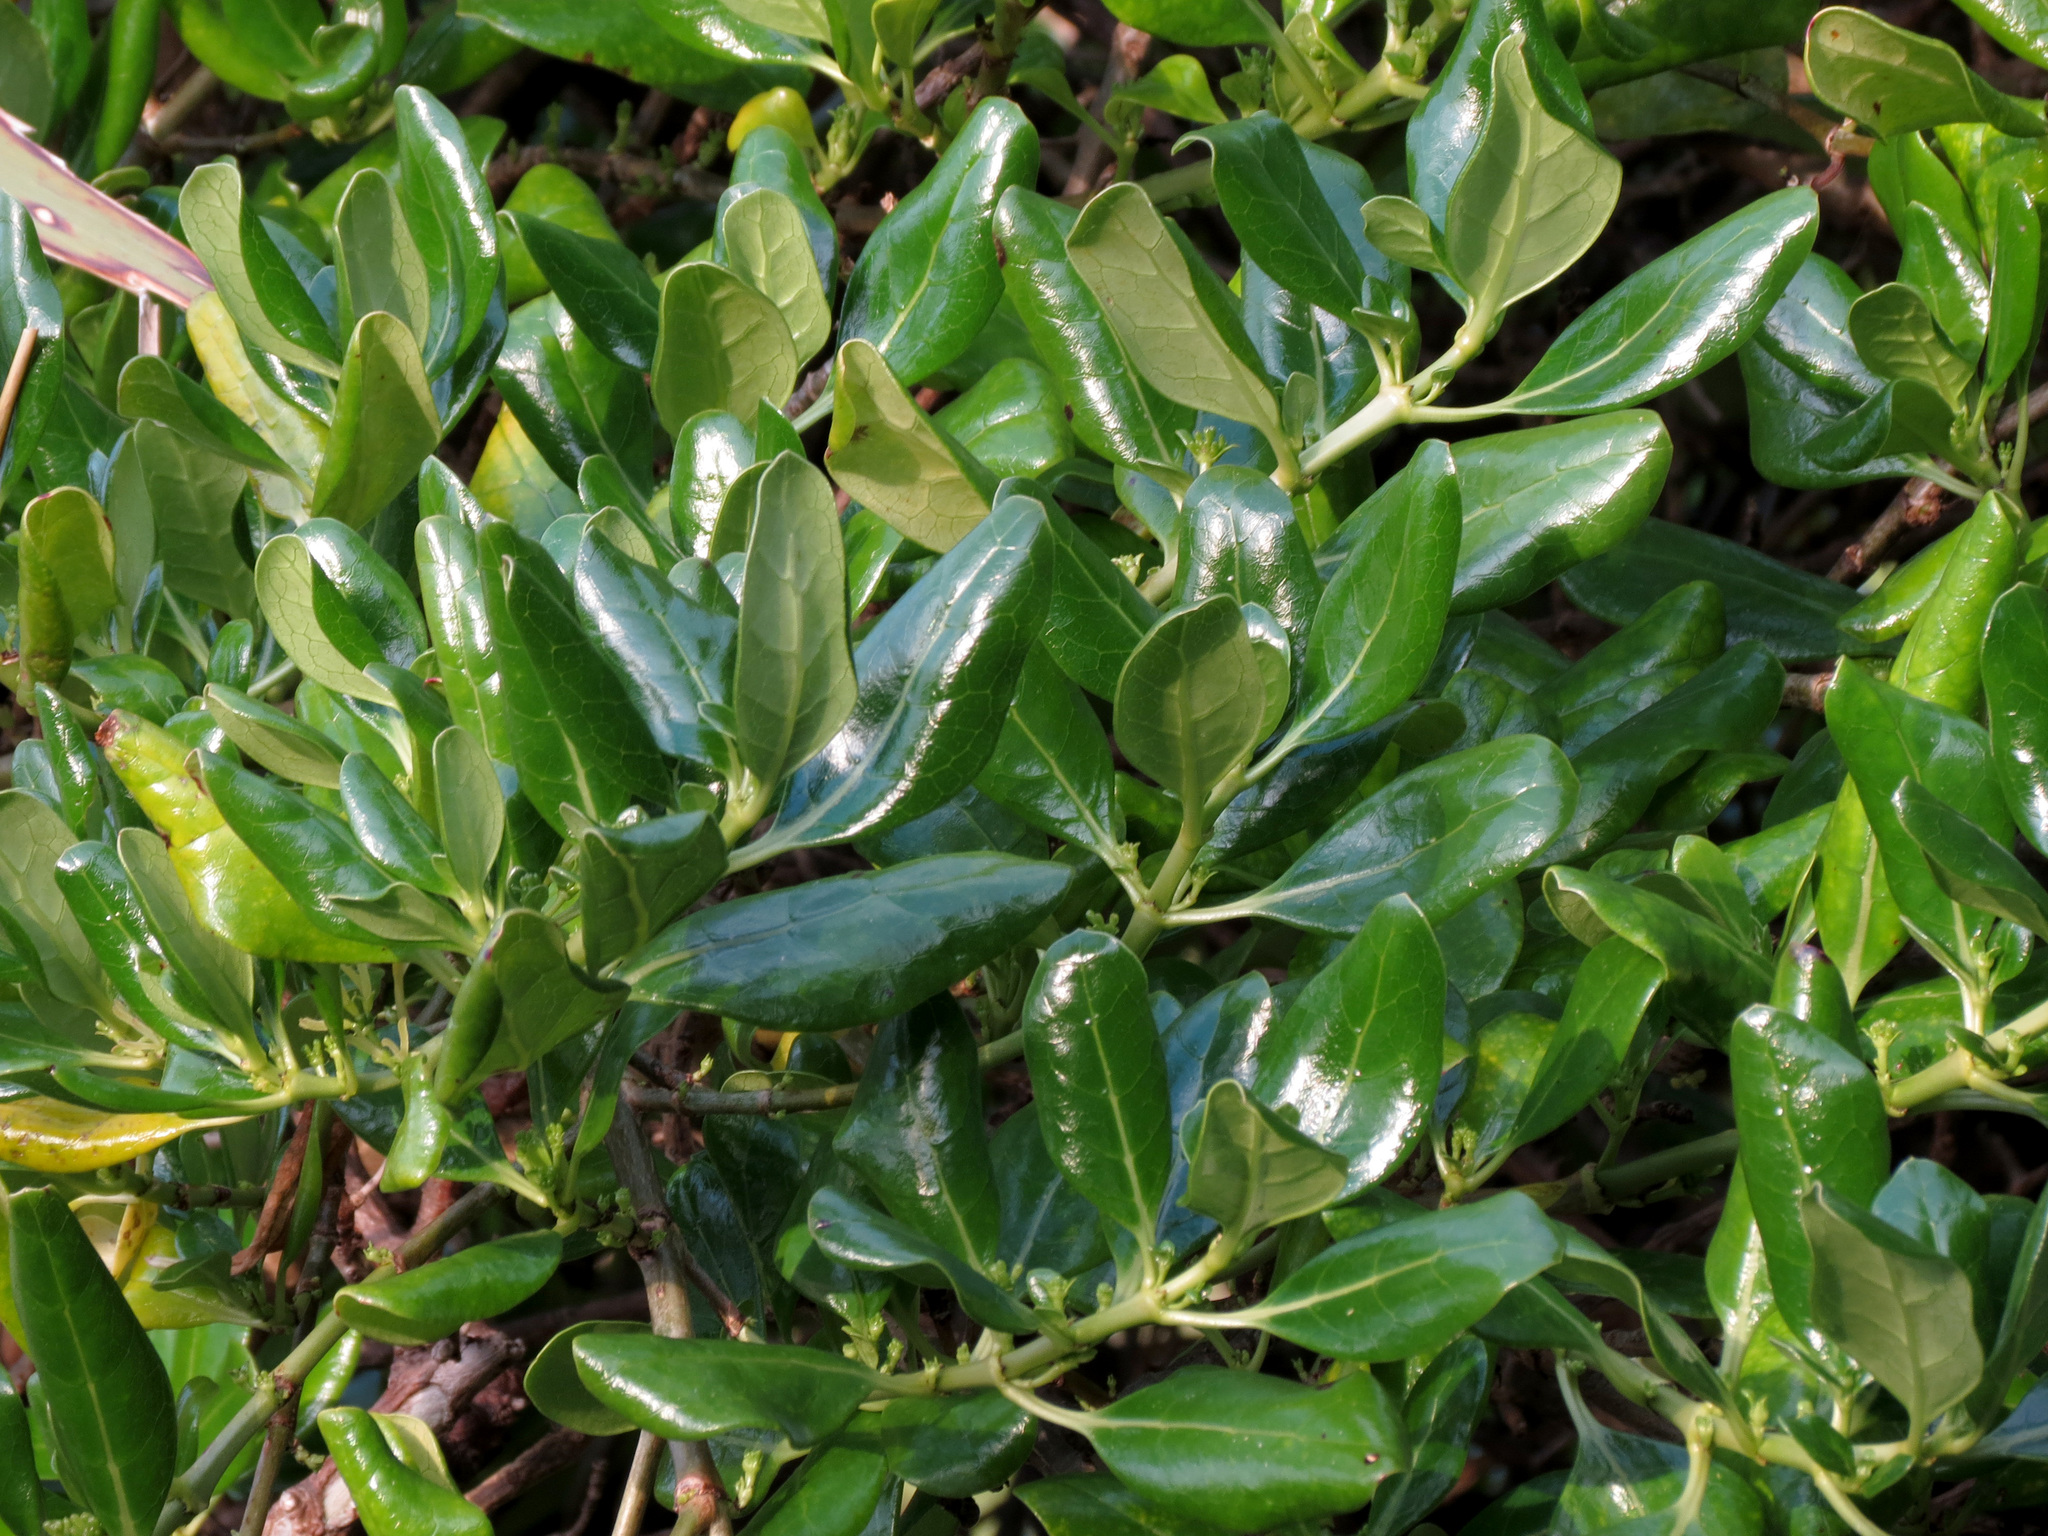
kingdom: Plantae
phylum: Tracheophyta
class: Magnoliopsida
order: Gentianales
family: Rubiaceae
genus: Coprosma
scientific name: Coprosma repens
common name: Tree bedstraw
